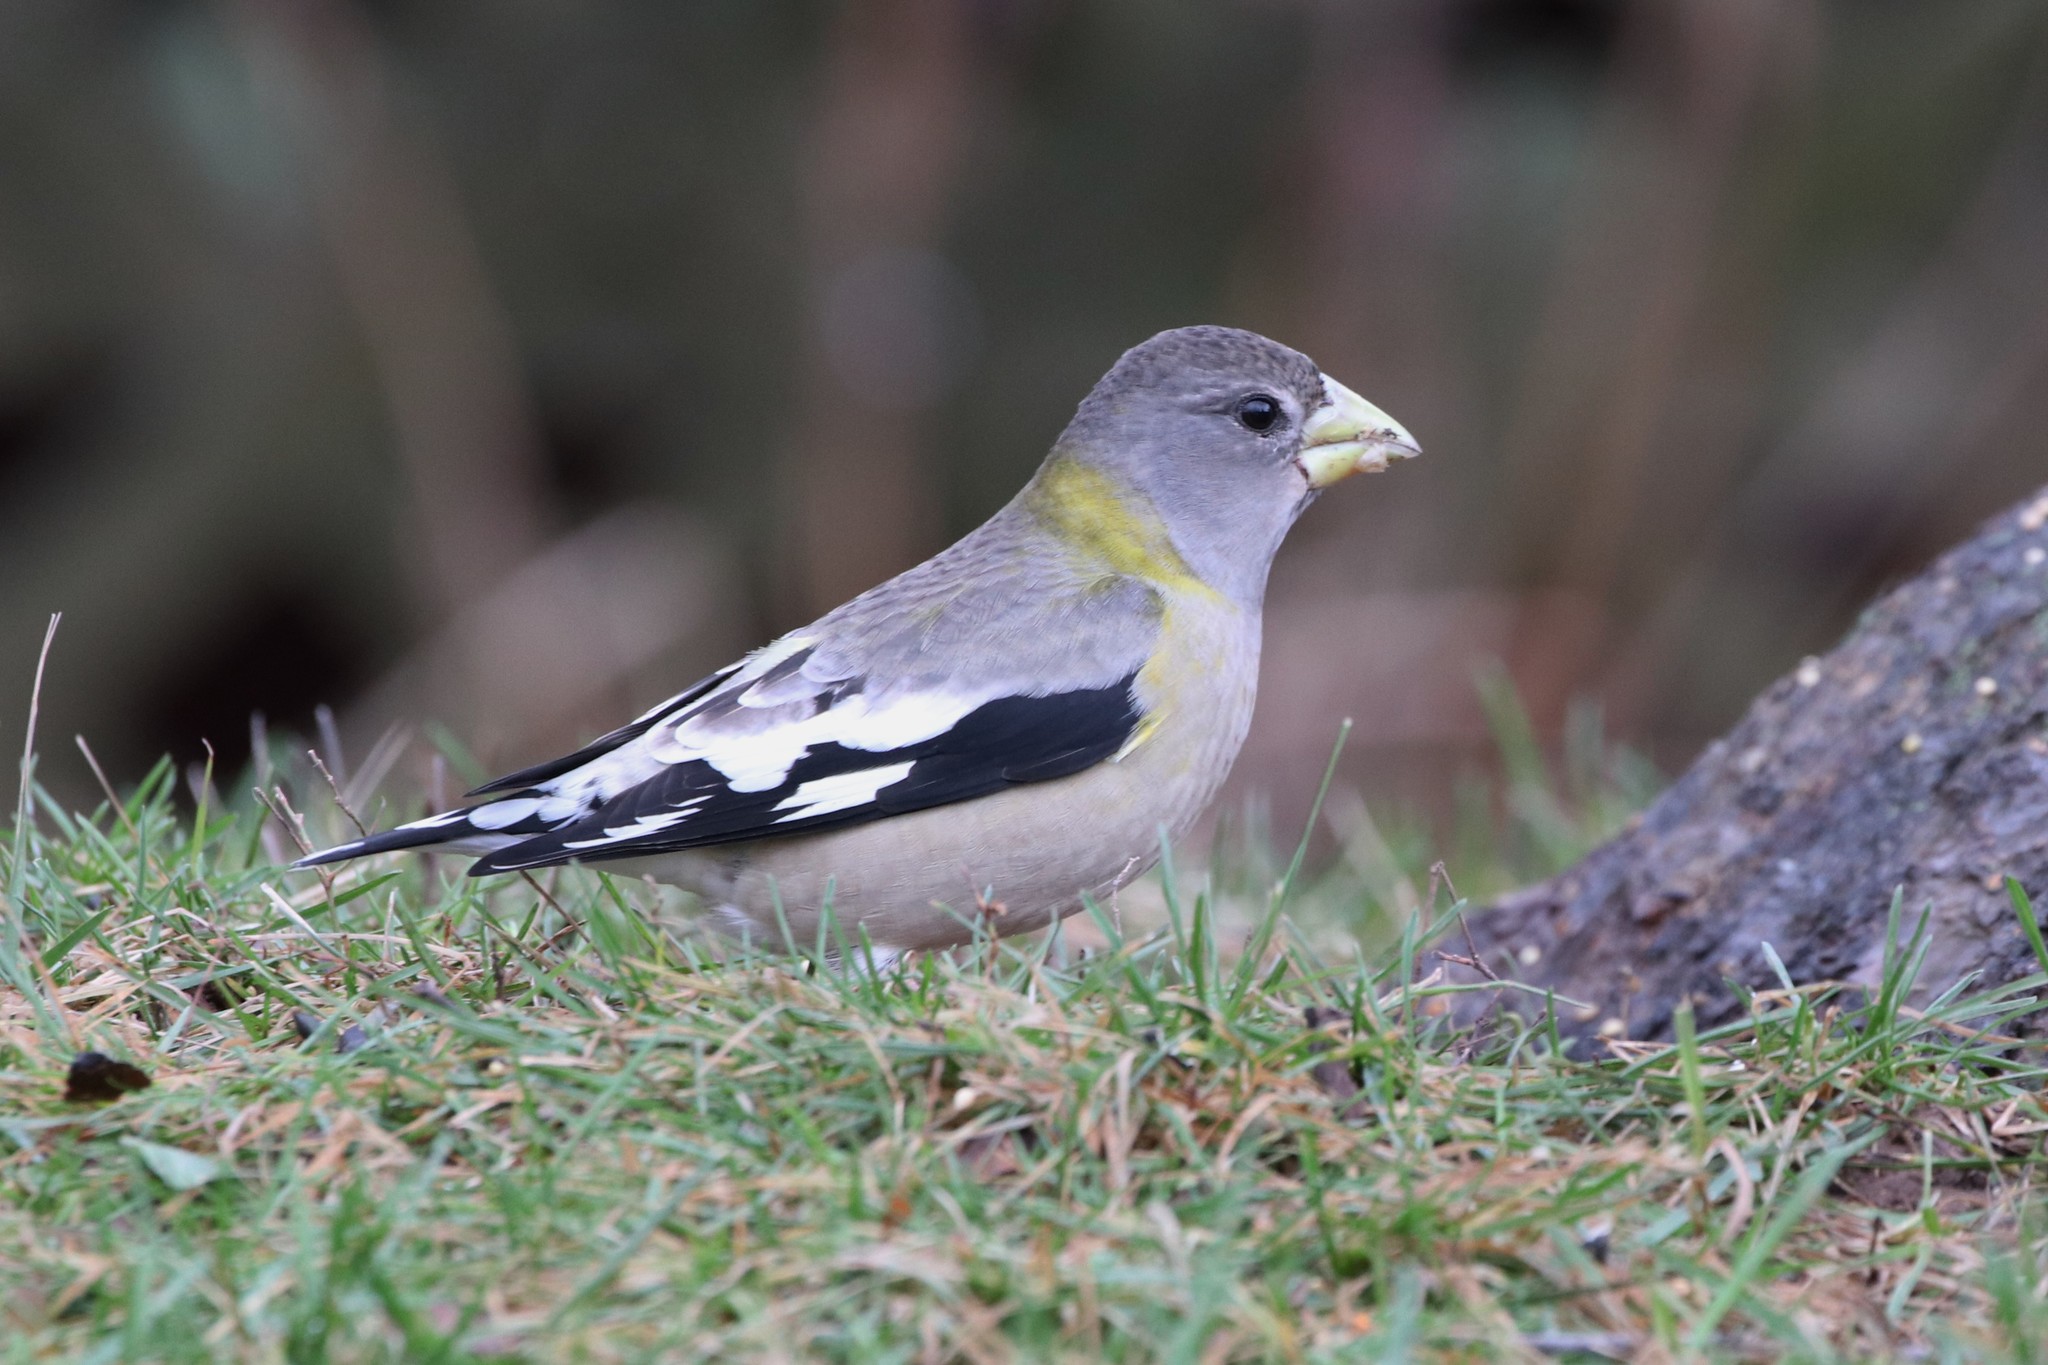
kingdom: Animalia
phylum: Chordata
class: Aves
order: Passeriformes
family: Fringillidae
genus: Hesperiphona
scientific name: Hesperiphona vespertina
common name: Evening grosbeak
